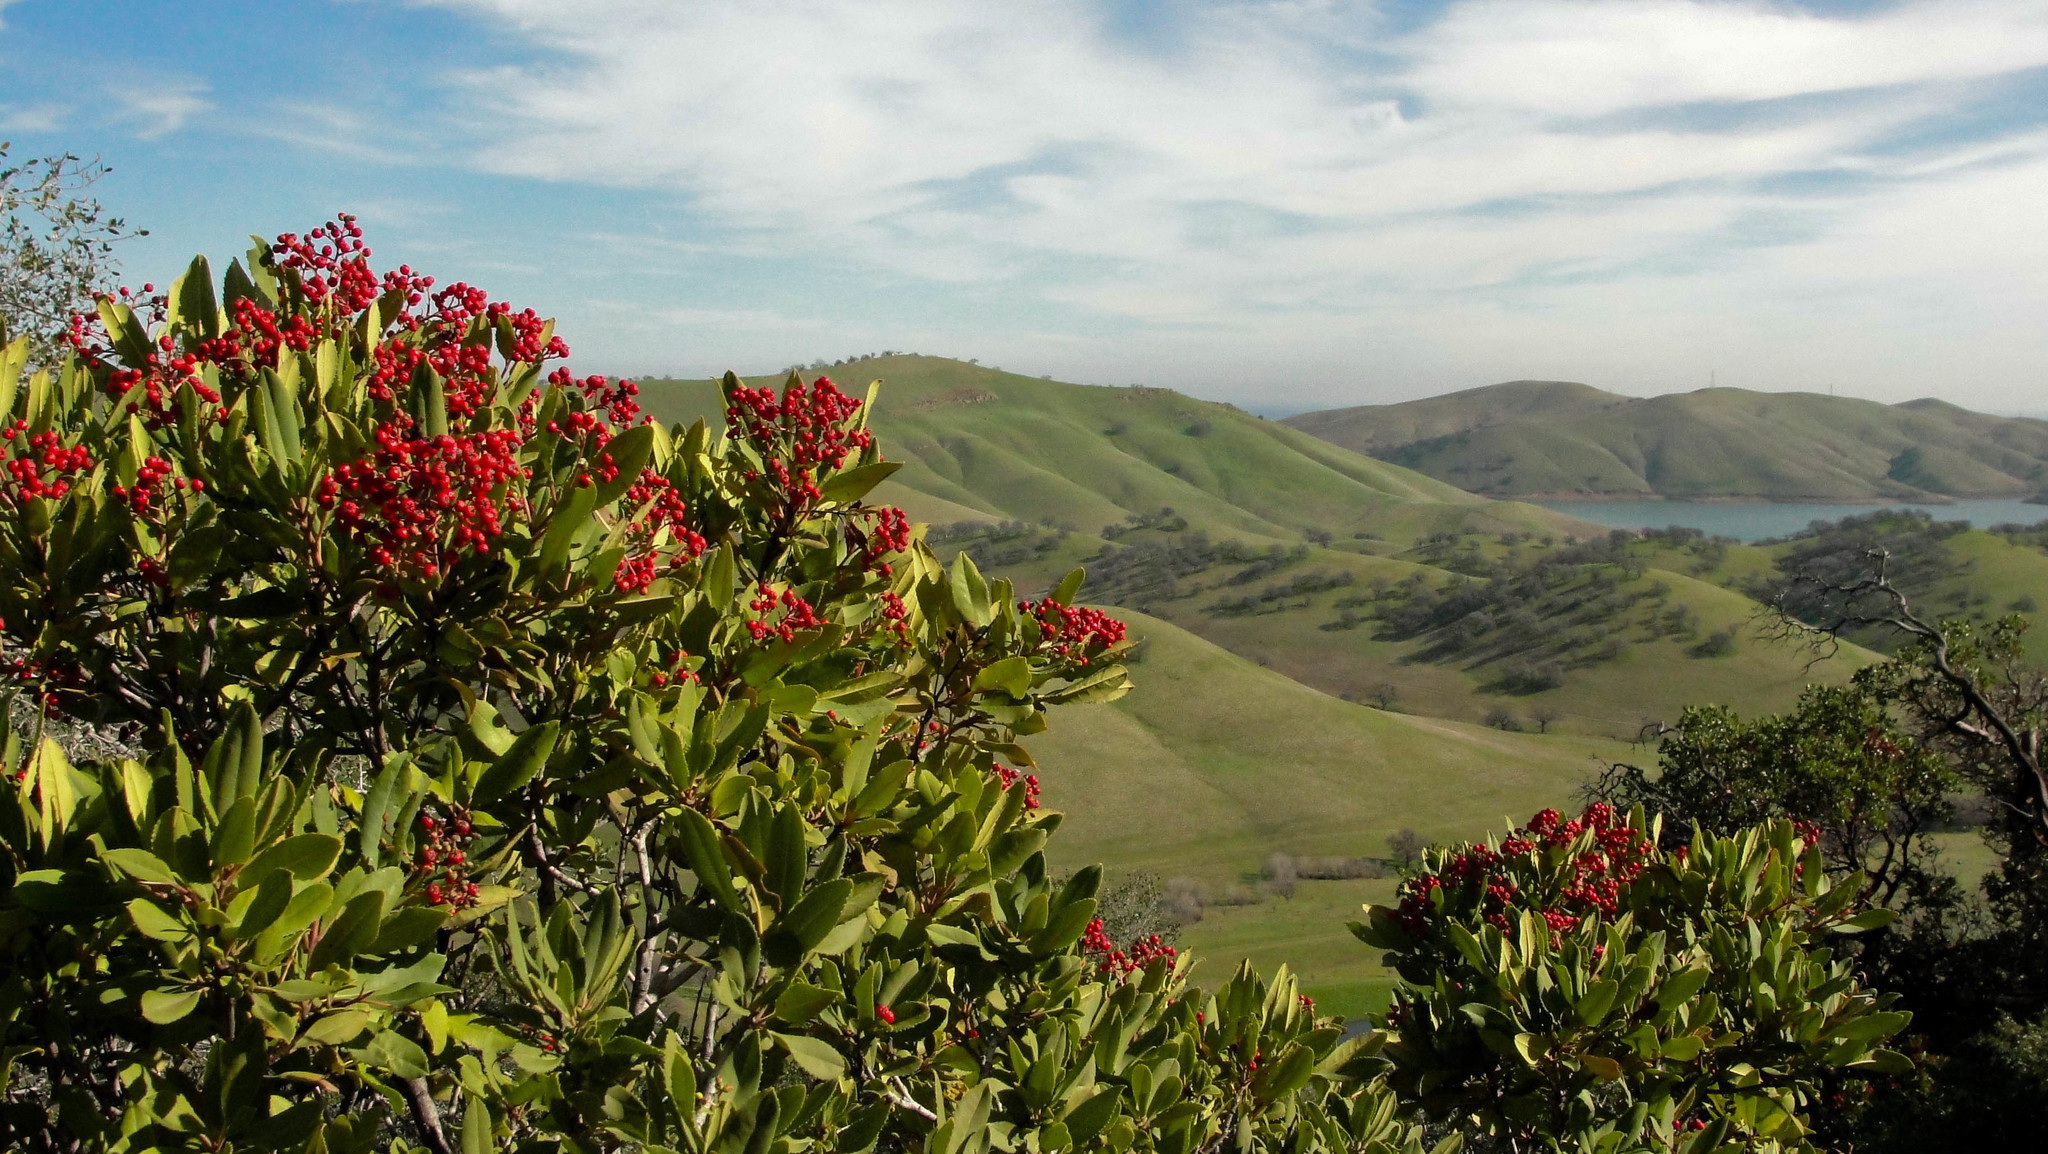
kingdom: Plantae
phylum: Tracheophyta
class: Magnoliopsida
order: Rosales
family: Rosaceae
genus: Heteromeles
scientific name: Heteromeles arbutifolia
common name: California-holly
